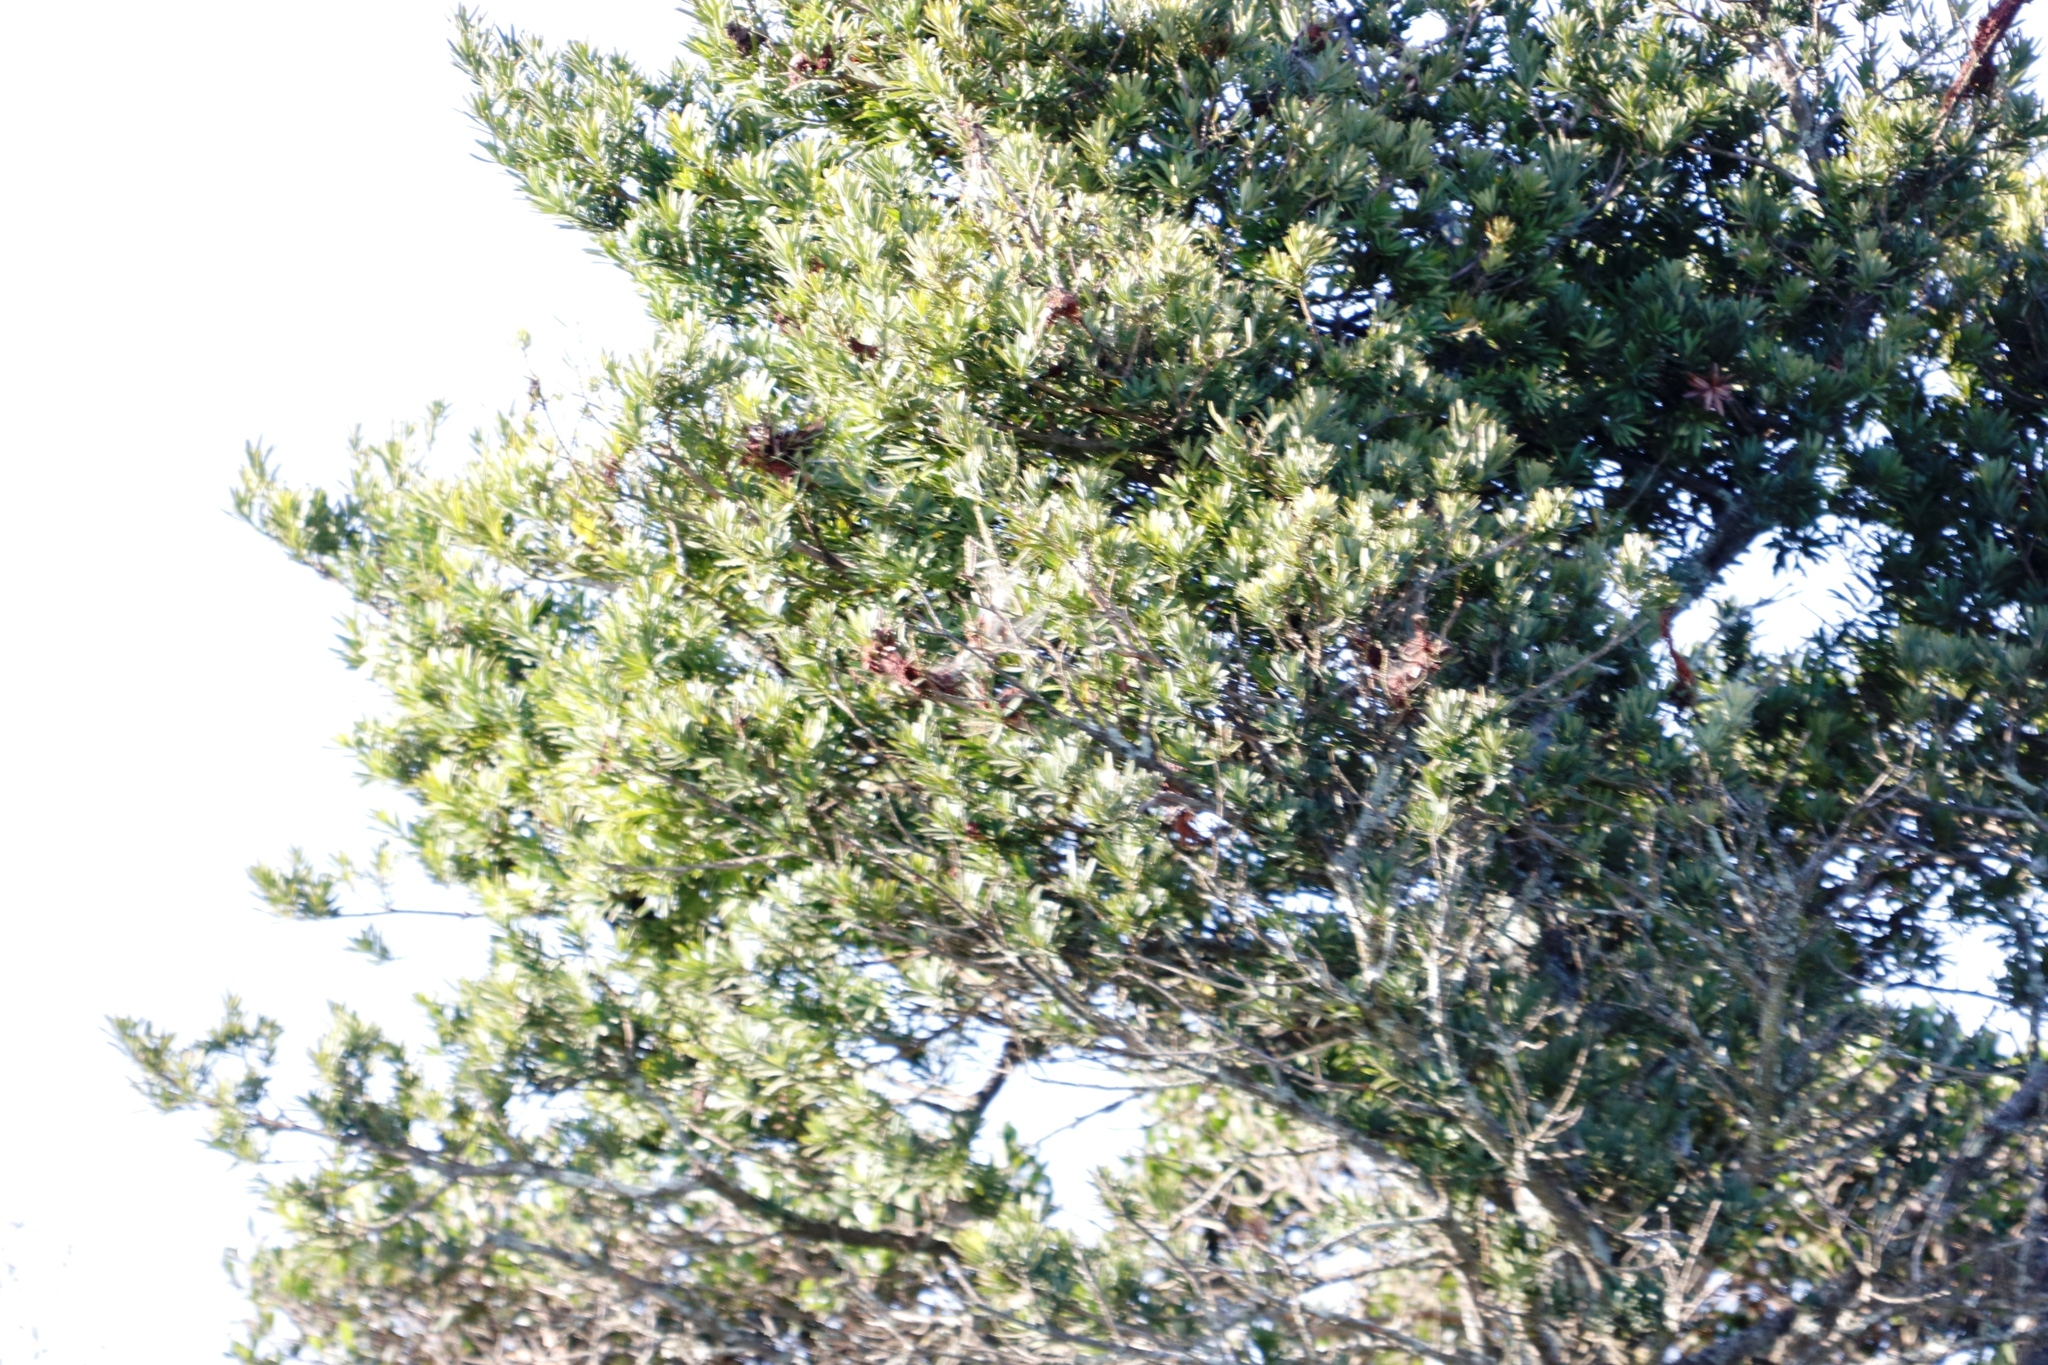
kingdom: Plantae
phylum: Tracheophyta
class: Pinopsida
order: Pinales
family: Podocarpaceae
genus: Podocarpus
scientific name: Podocarpus latifolius
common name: True yellowwood
